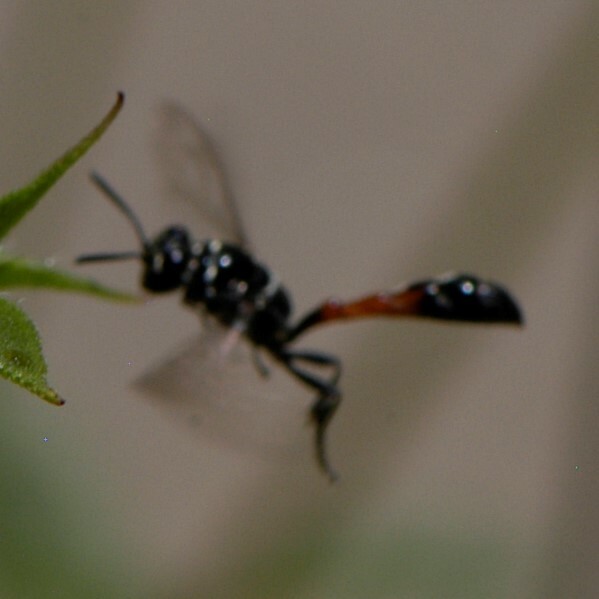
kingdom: Animalia
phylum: Arthropoda
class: Insecta
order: Hymenoptera
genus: Trypargilum
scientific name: Trypargilum
